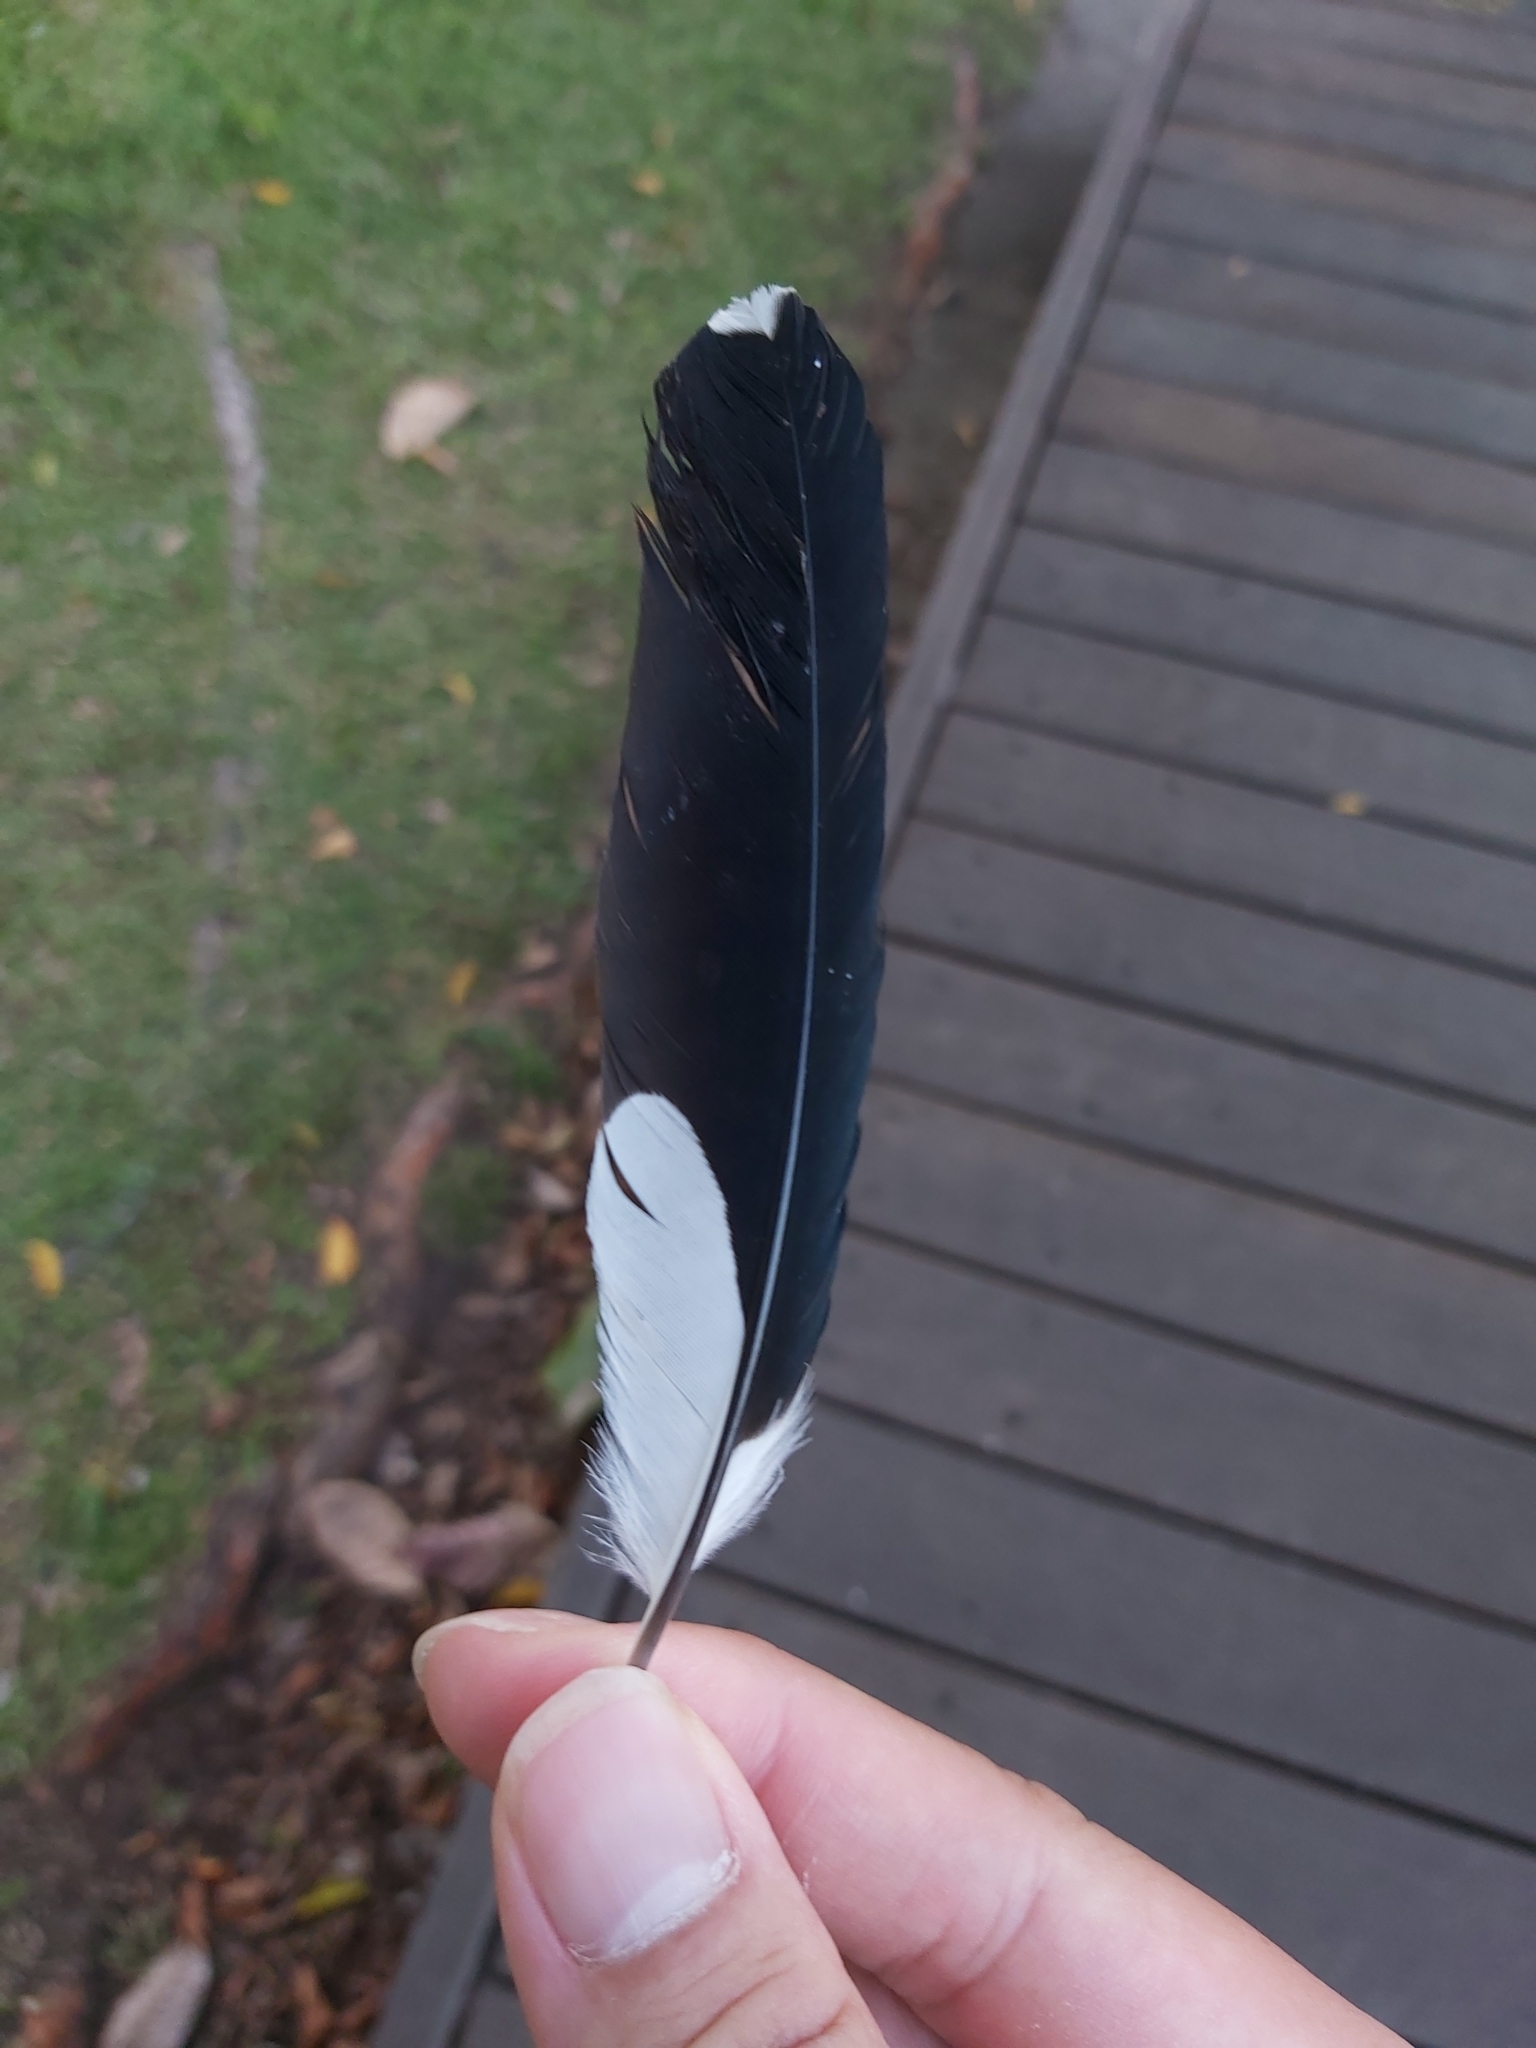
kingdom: Animalia
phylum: Chordata
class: Aves
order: Passeriformes
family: Monarchidae
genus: Grallina
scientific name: Grallina cyanoleuca
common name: Magpie-lark
